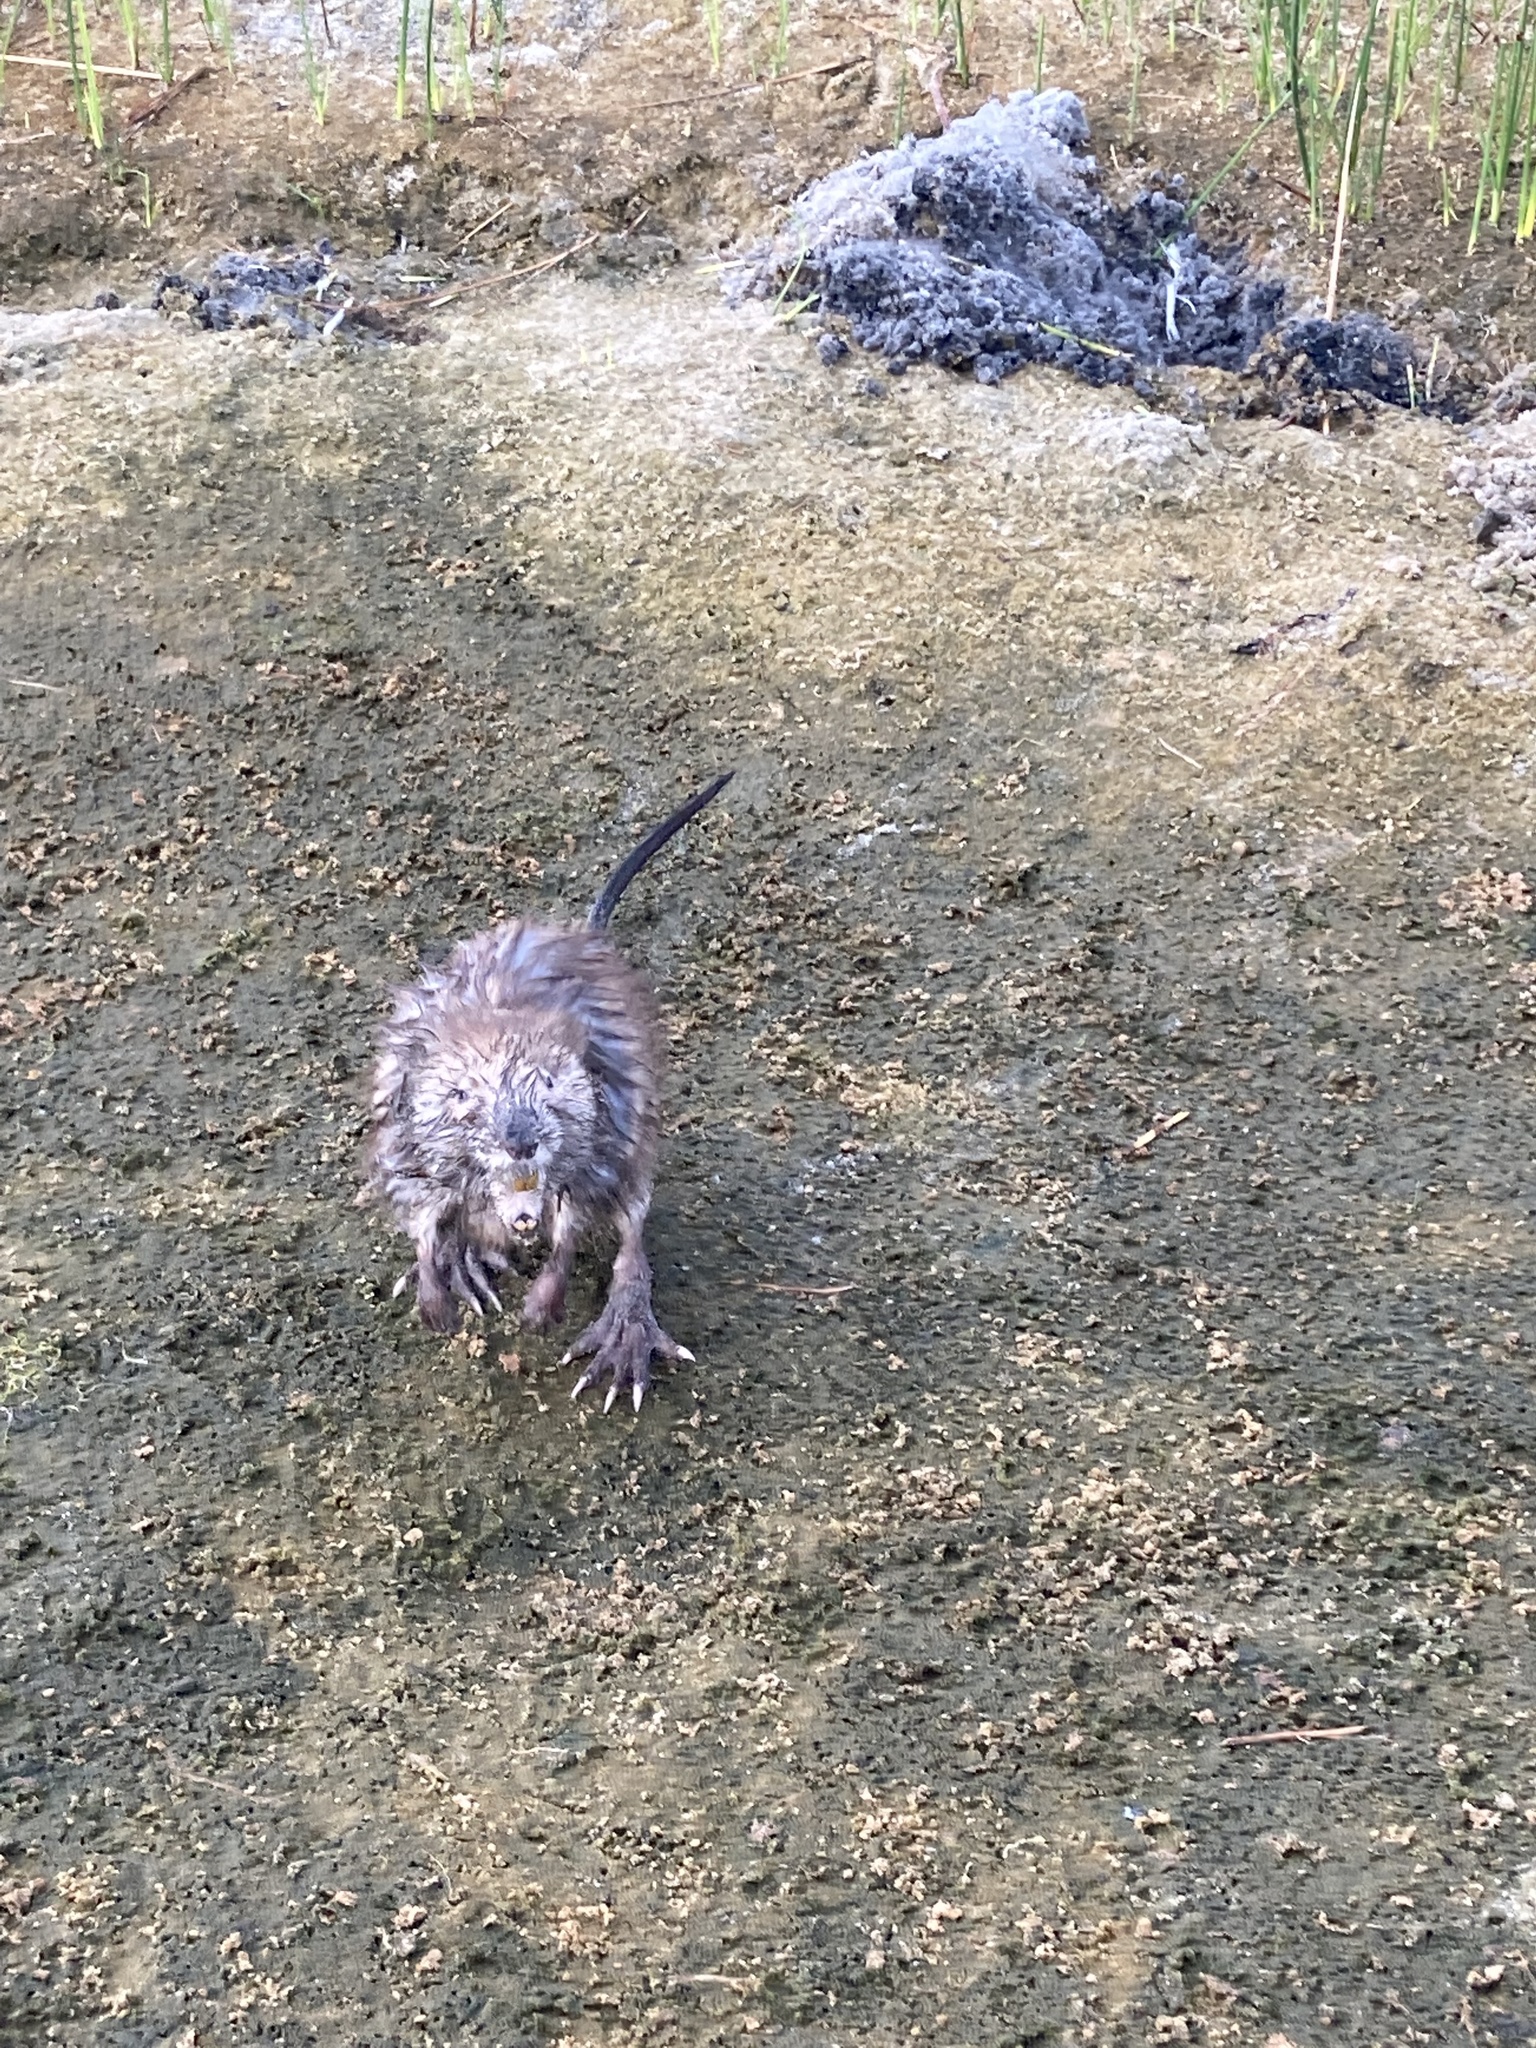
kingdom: Animalia
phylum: Chordata
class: Mammalia
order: Rodentia
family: Cricetidae
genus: Ondatra
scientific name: Ondatra zibethicus
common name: Muskrat
